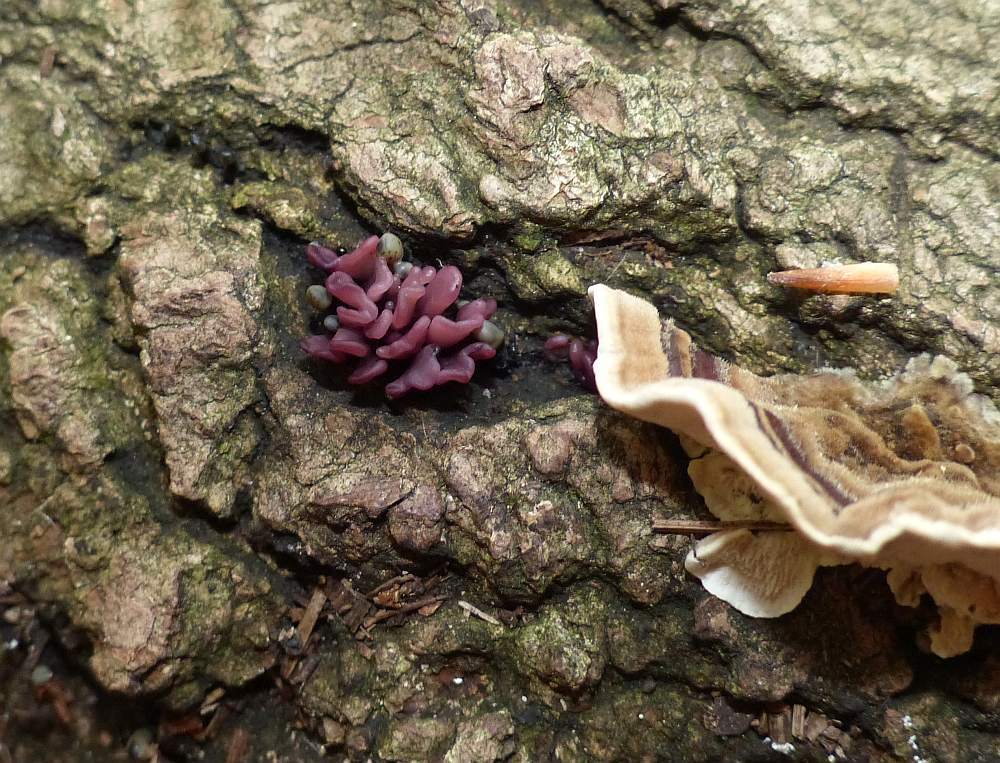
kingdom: Fungi
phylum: Ascomycota
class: Leotiomycetes
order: Helotiales
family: Gelatinodiscaceae
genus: Ascocoryne
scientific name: Ascocoryne sarcoides
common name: Purple jellydisc
